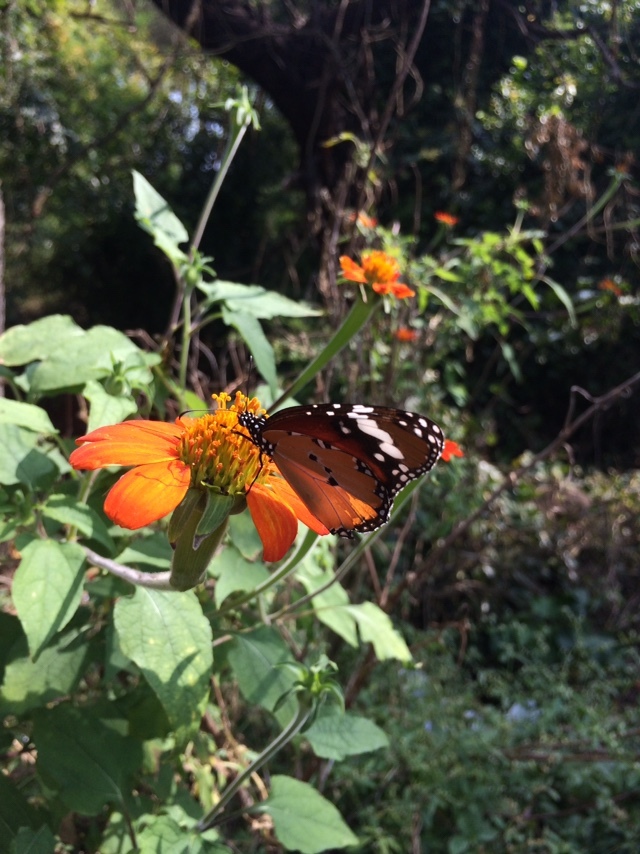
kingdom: Animalia
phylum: Arthropoda
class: Insecta
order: Lepidoptera
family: Nymphalidae
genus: Danaus
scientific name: Danaus chrysippus
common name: Plain tiger
